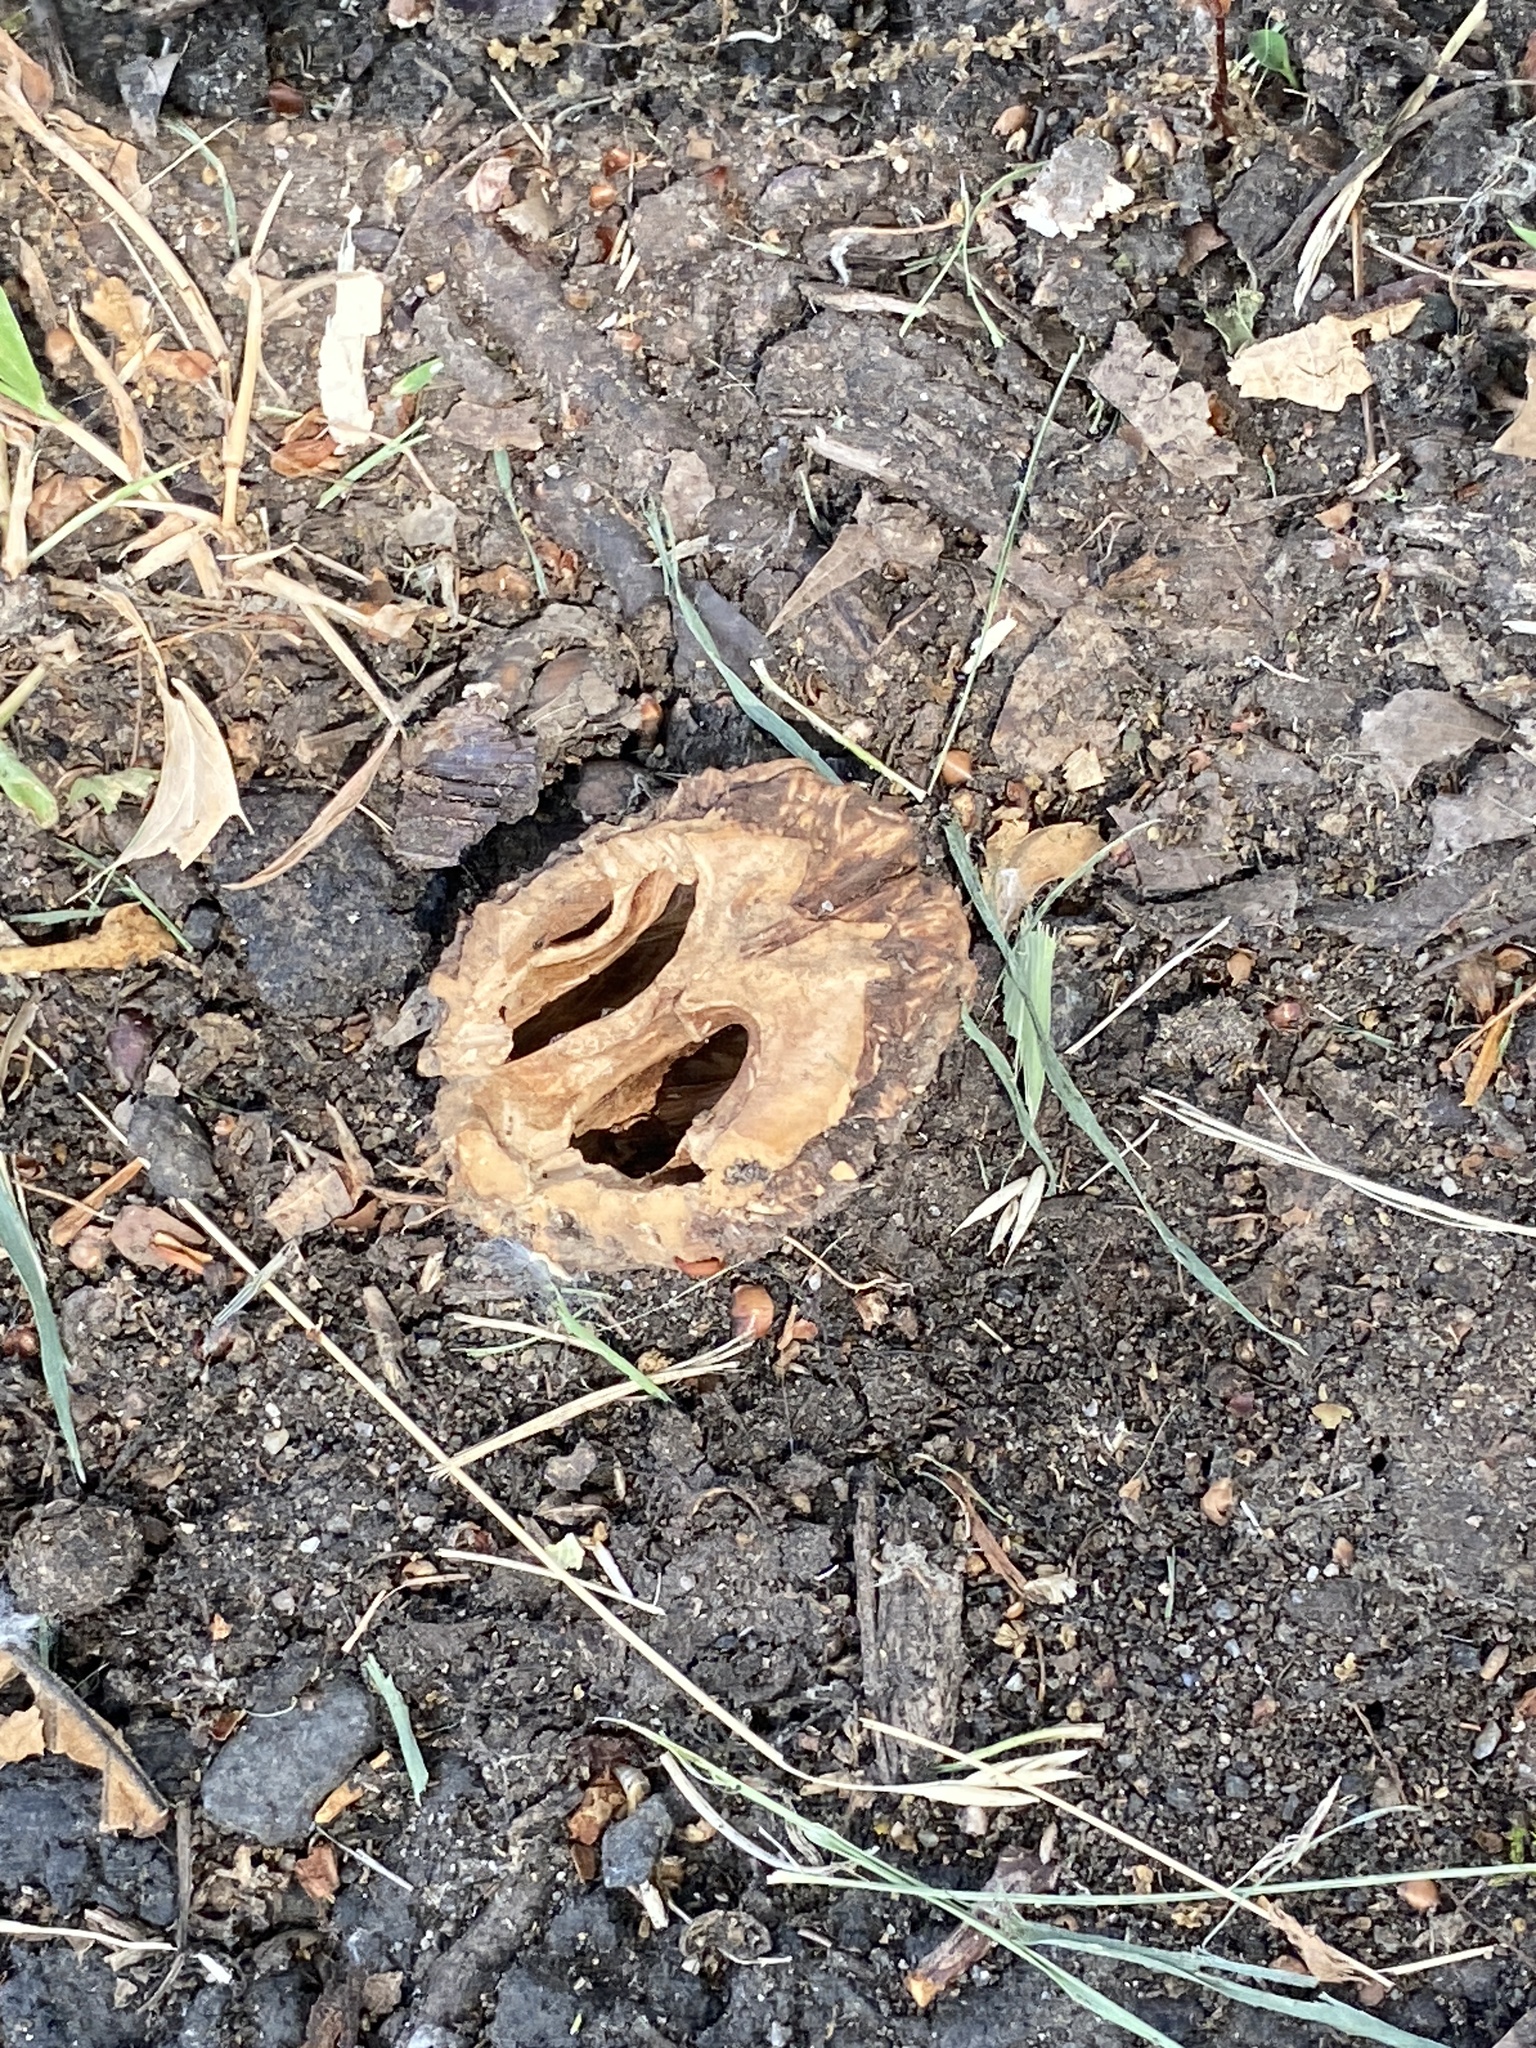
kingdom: Plantae
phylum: Tracheophyta
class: Magnoliopsida
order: Fagales
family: Juglandaceae
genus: Juglans
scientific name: Juglans nigra
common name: Black walnut
